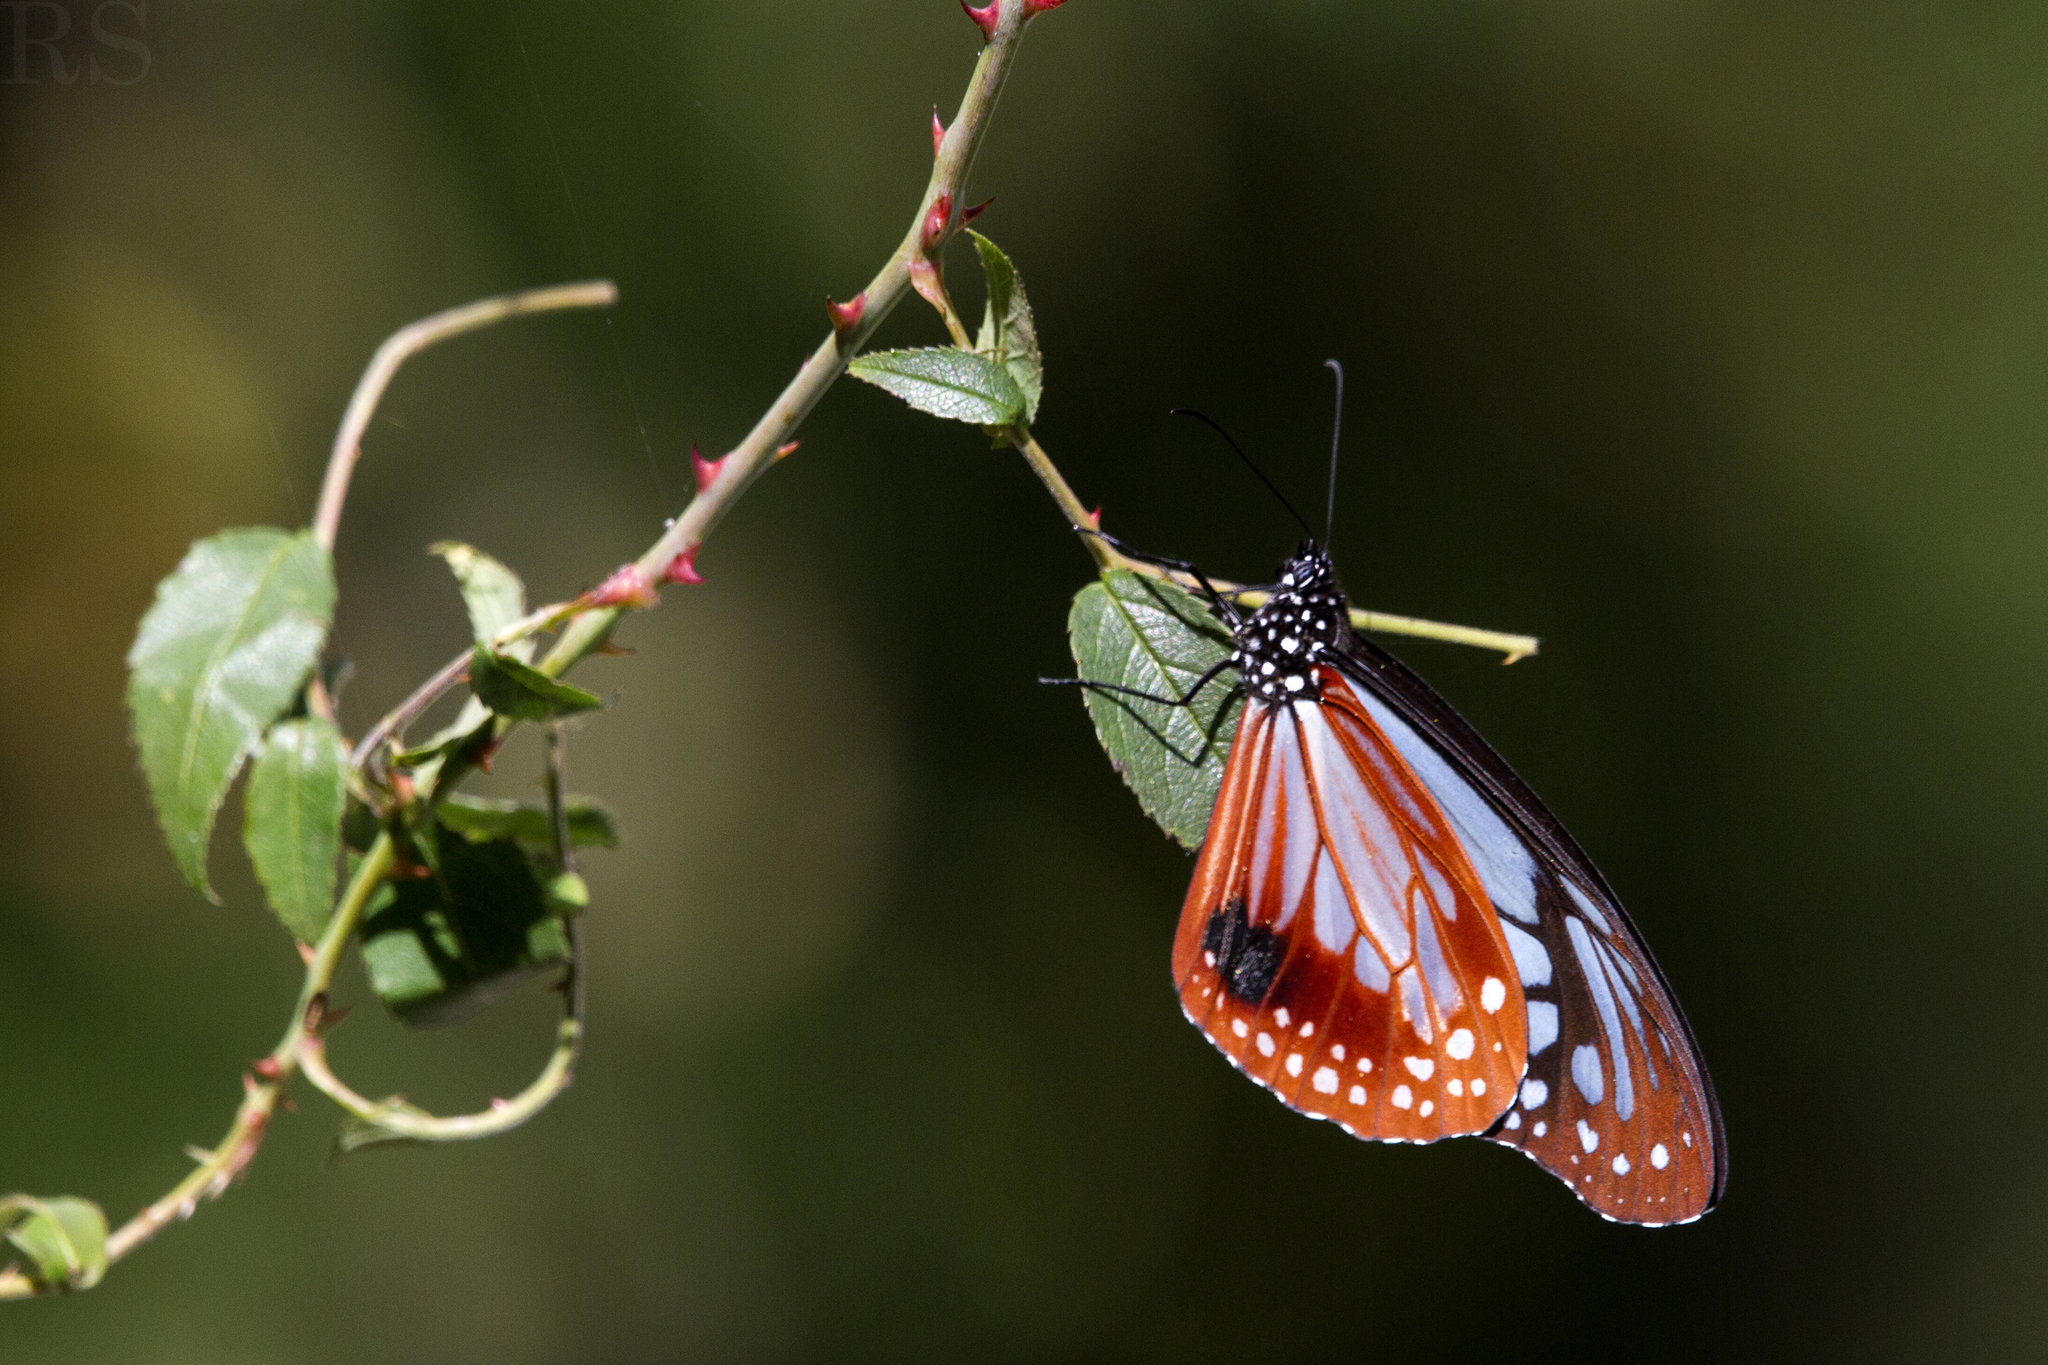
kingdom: Animalia
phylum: Arthropoda
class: Insecta
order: Lepidoptera
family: Nymphalidae
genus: Parantica
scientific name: Parantica sita
